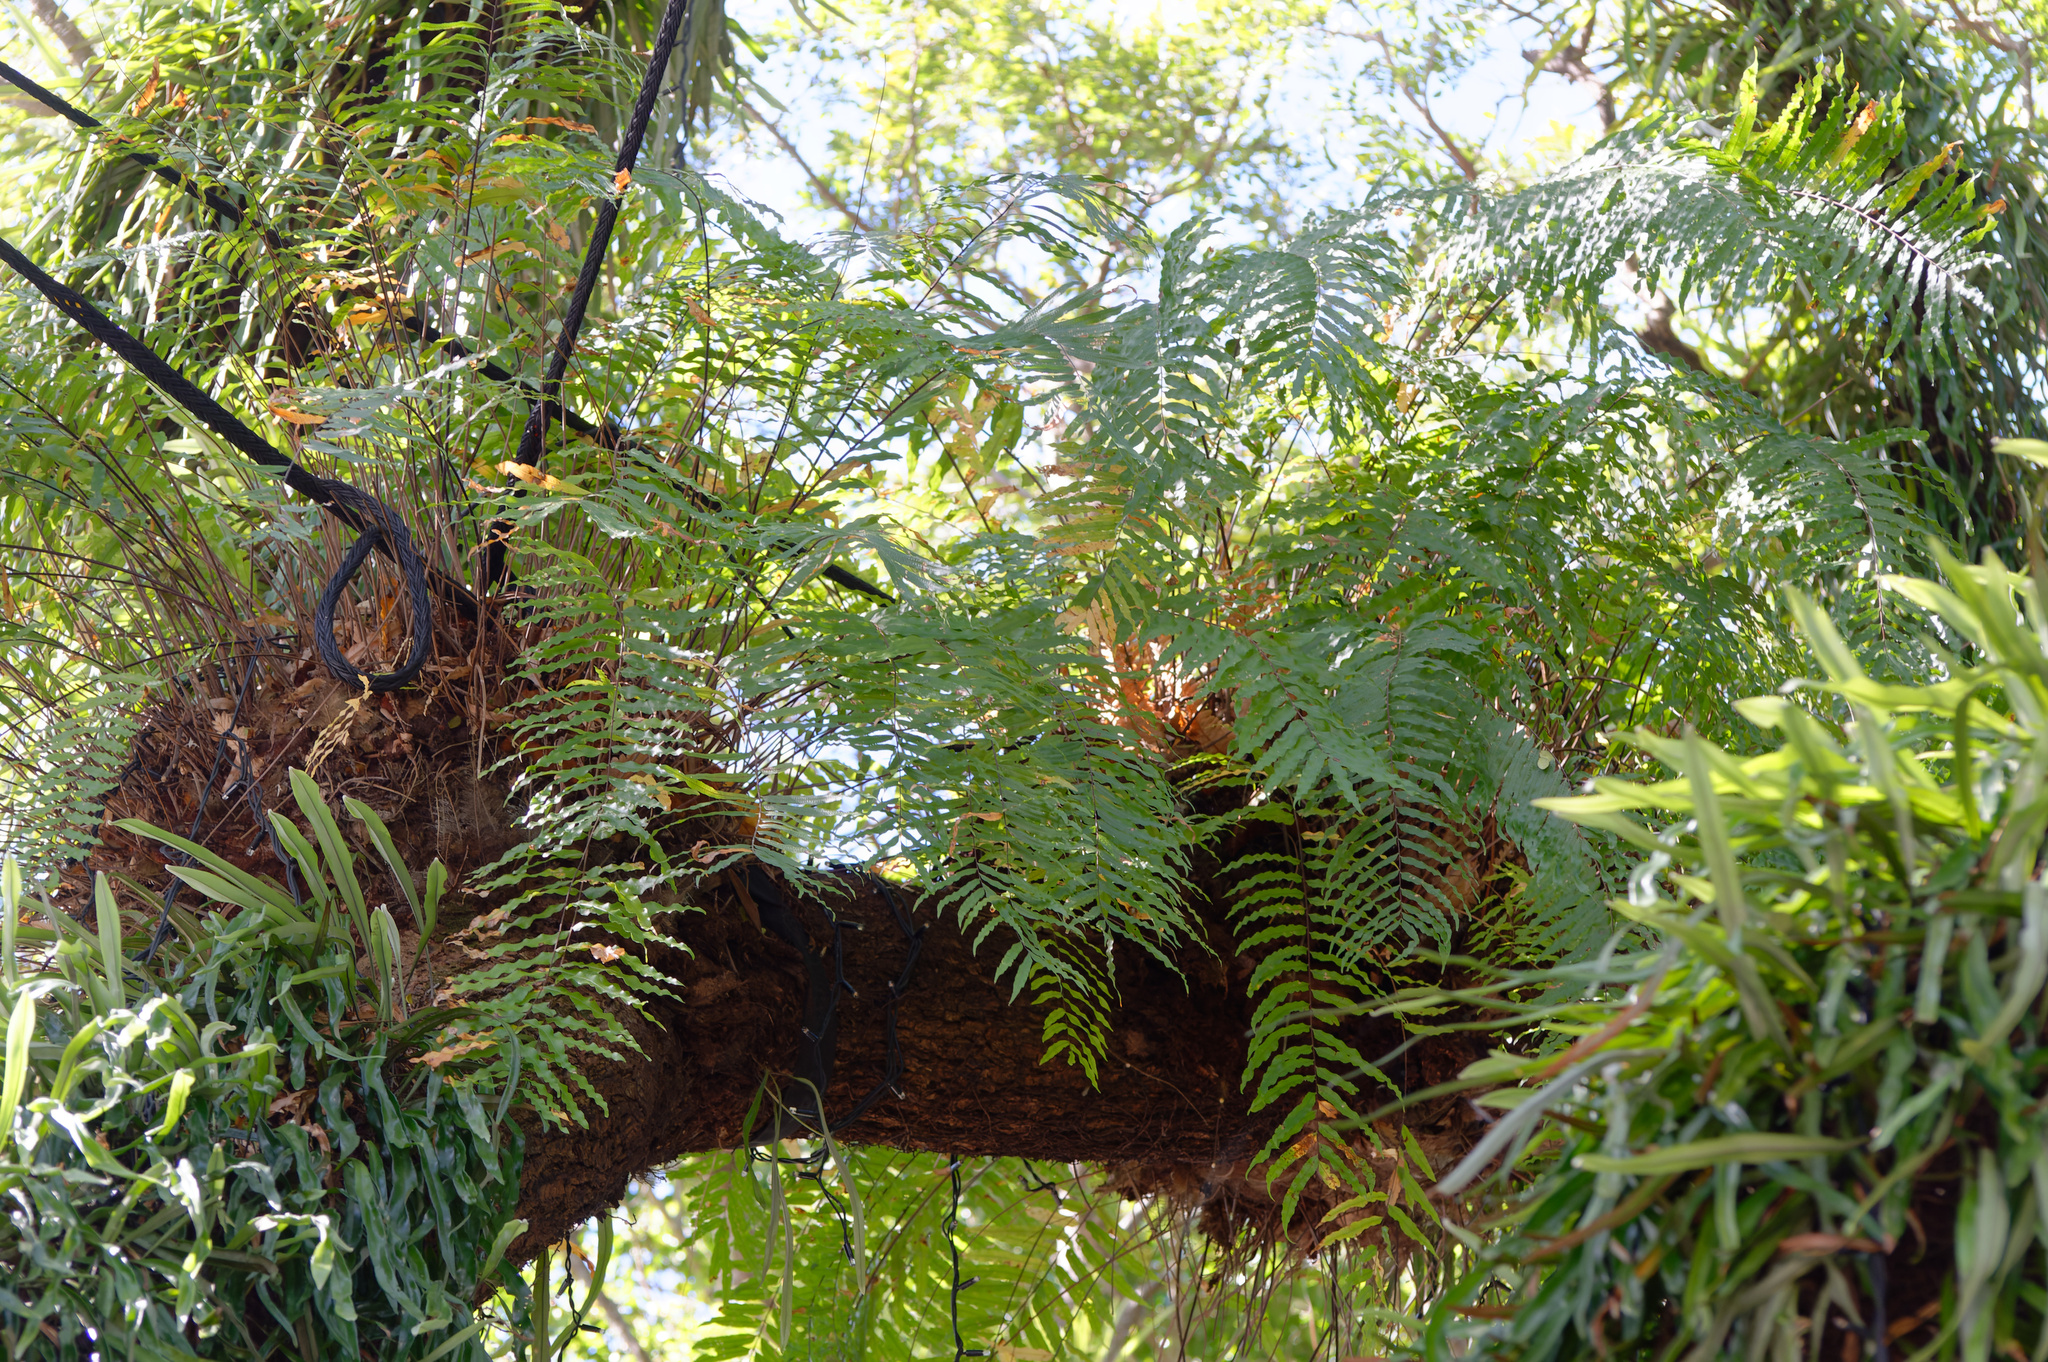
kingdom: Plantae
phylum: Tracheophyta
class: Polypodiopsida
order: Polypodiales
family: Polypodiaceae
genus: Drynaria
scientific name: Drynaria rigidula
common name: Basket fern
